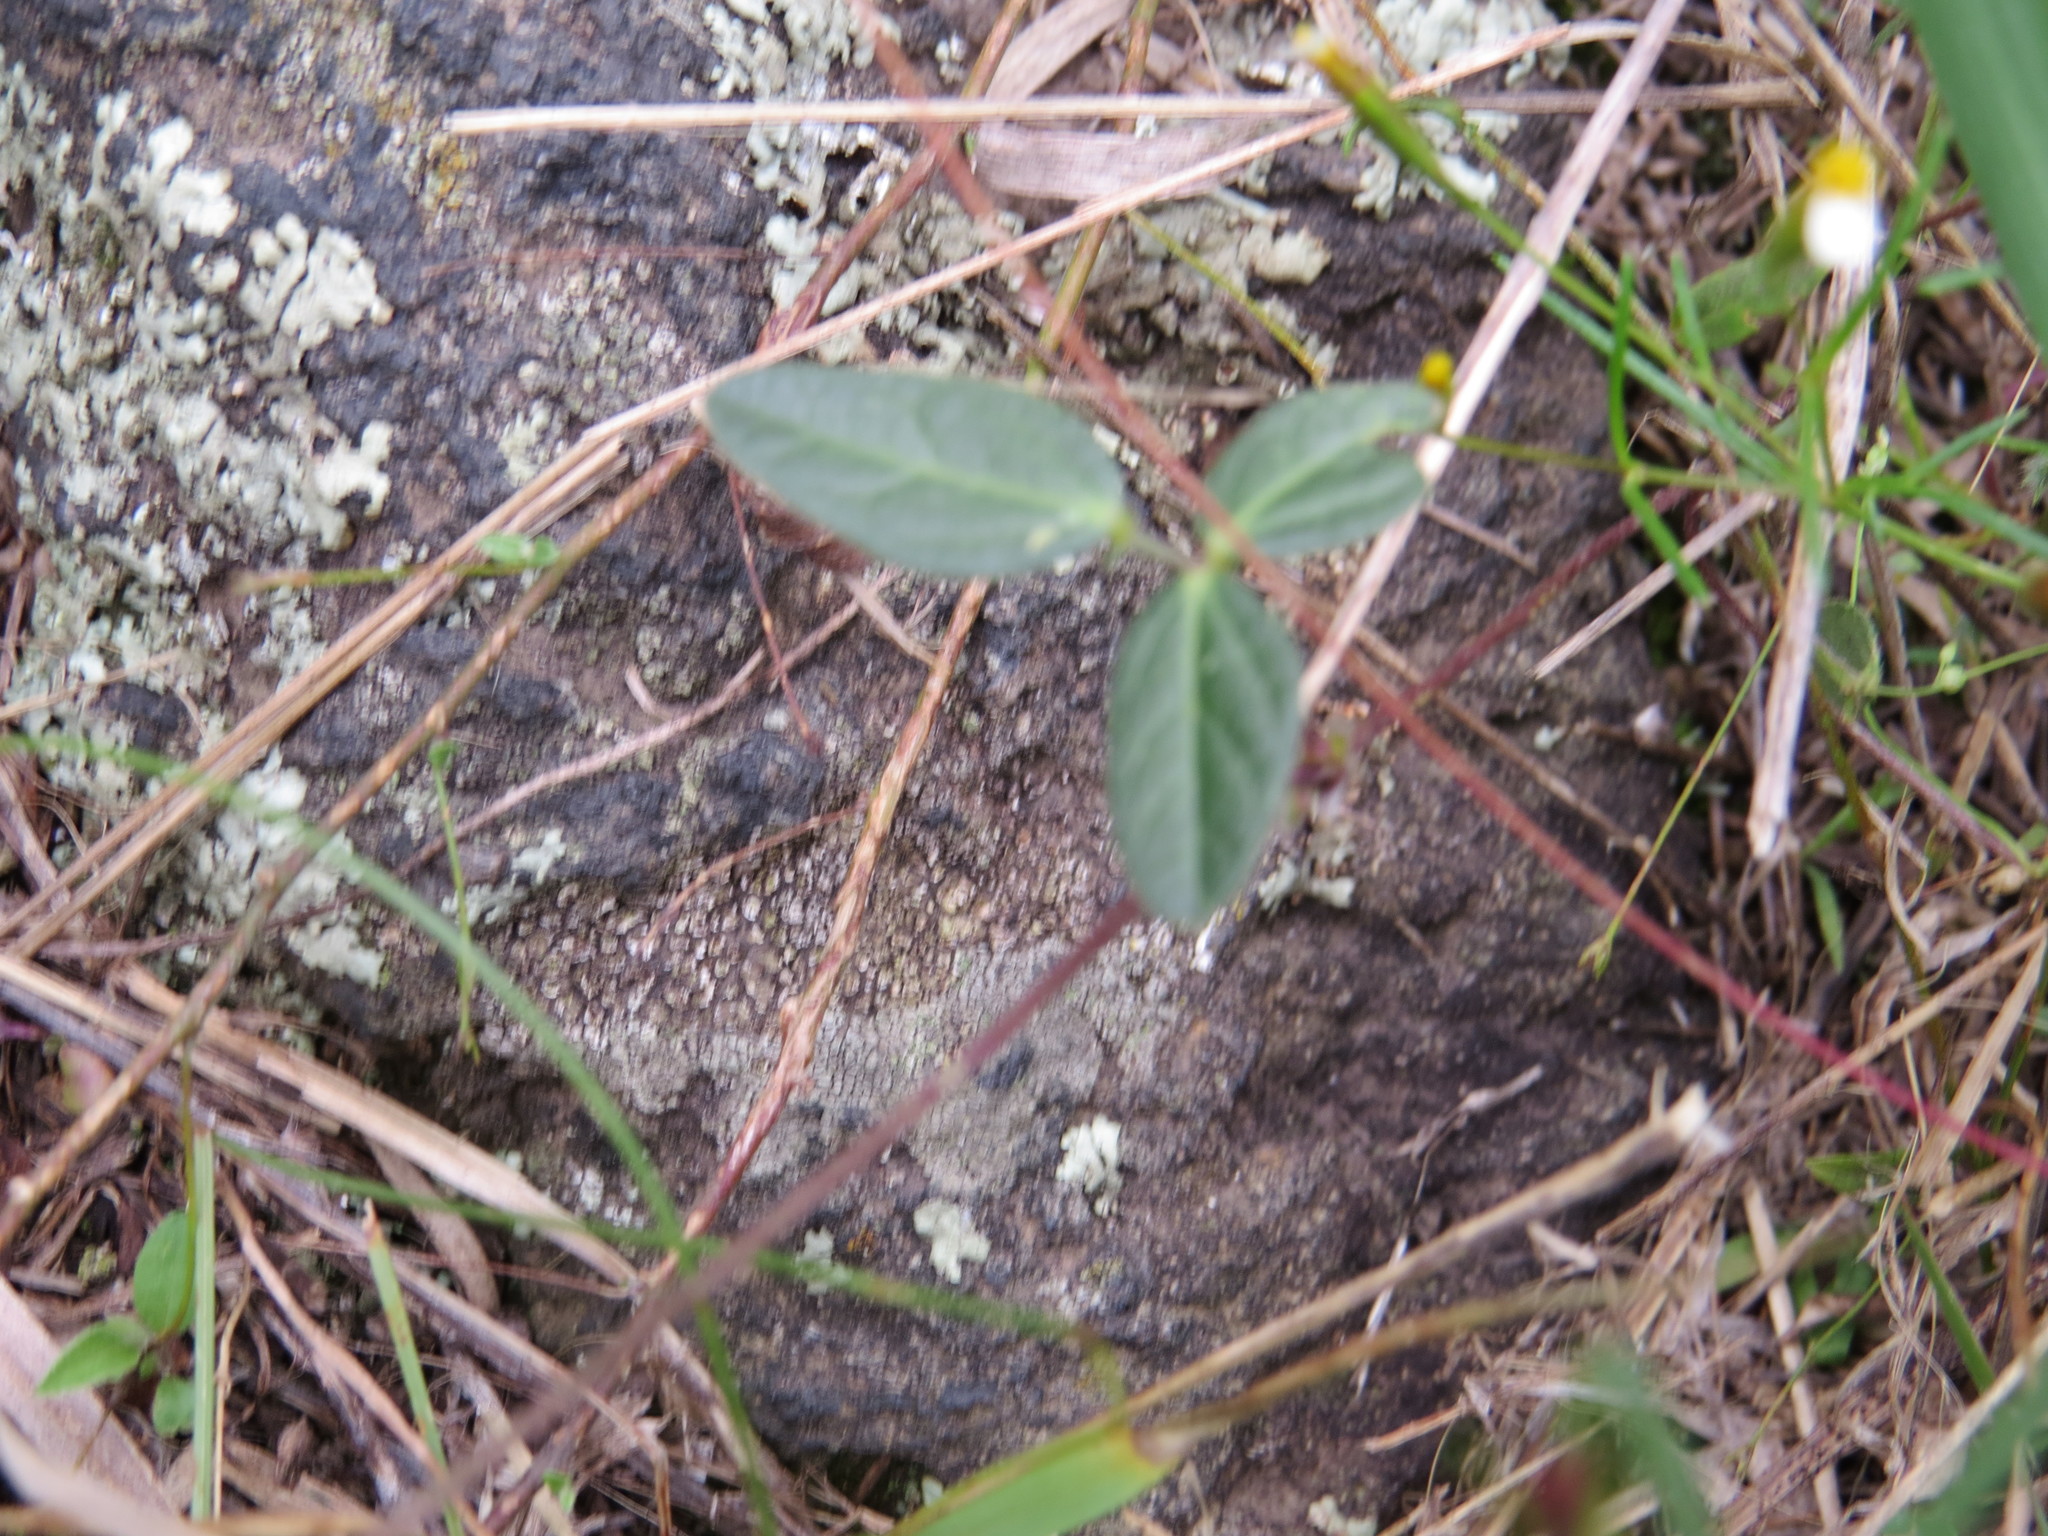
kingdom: Plantae
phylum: Tracheophyta
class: Magnoliopsida
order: Fabales
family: Fabaceae
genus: Macroptilium
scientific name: Macroptilium gibbosifolium
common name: Variableleaf bushbean
